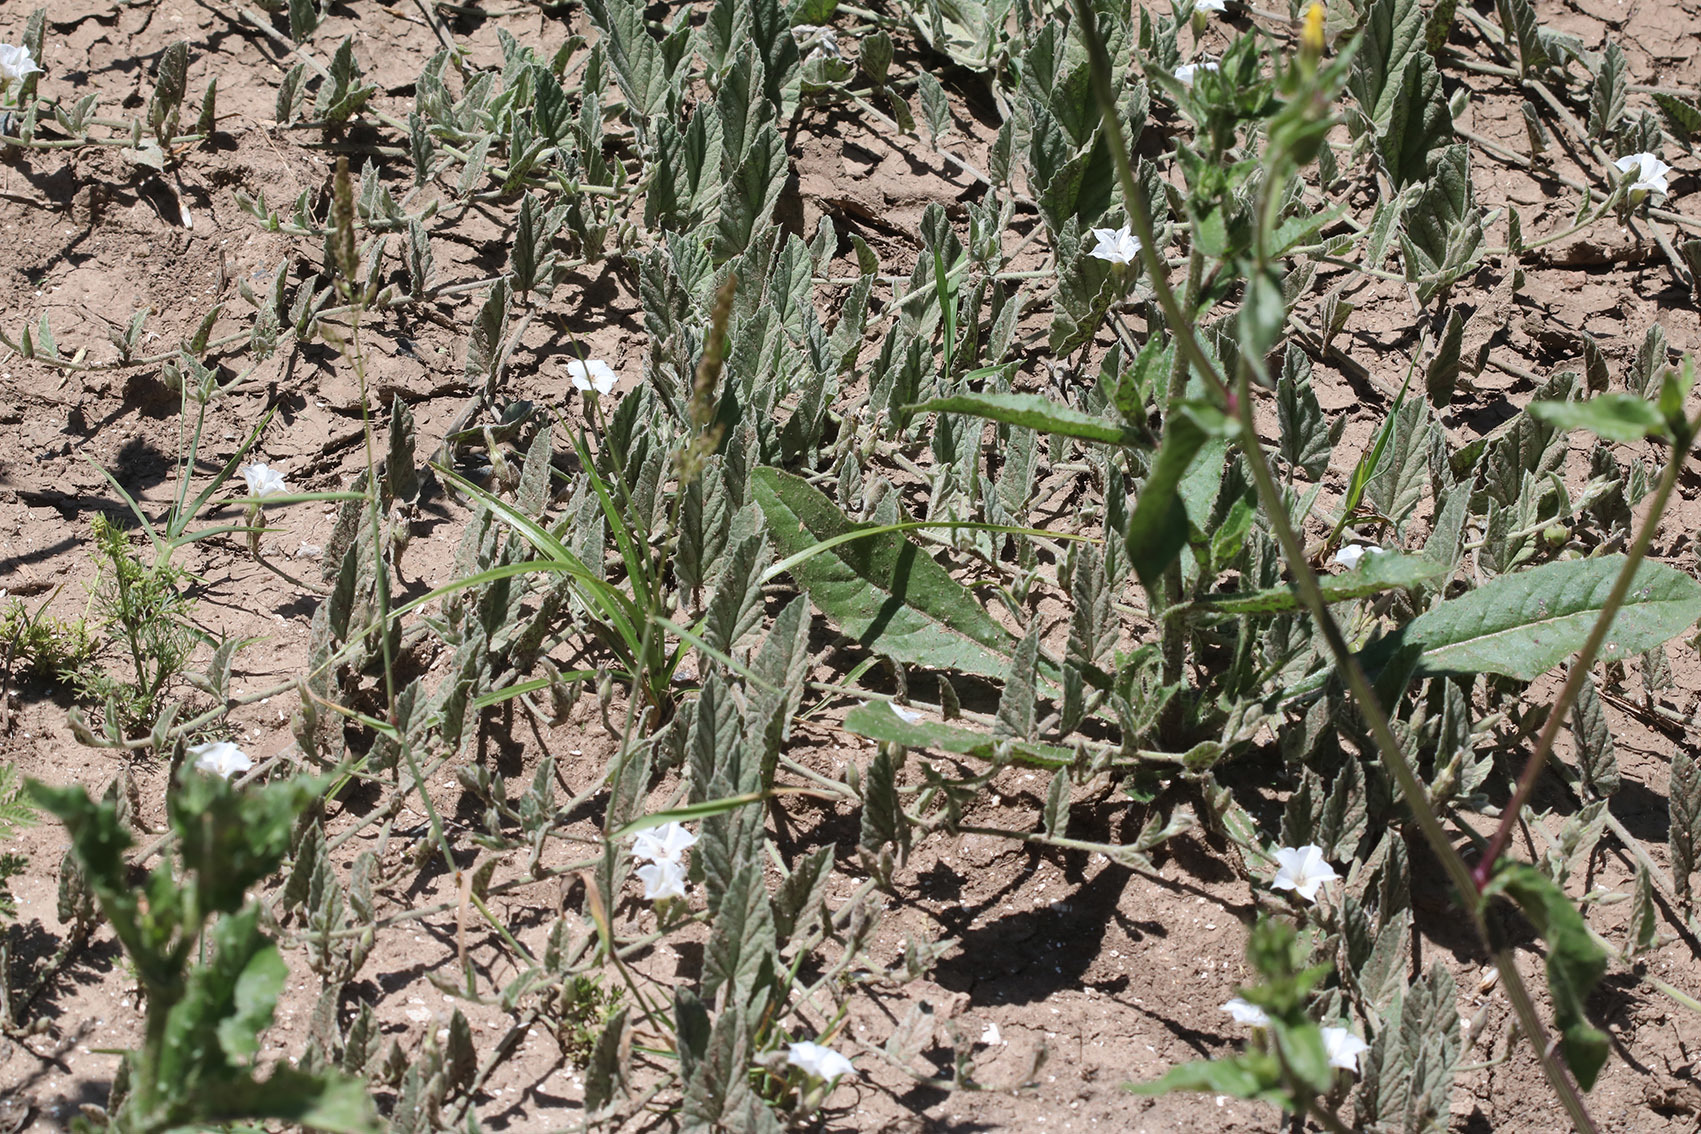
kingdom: Plantae
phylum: Tracheophyta
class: Magnoliopsida
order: Solanales
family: Convolvulaceae
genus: Convolvulus
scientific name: Convolvulus hermanniae
